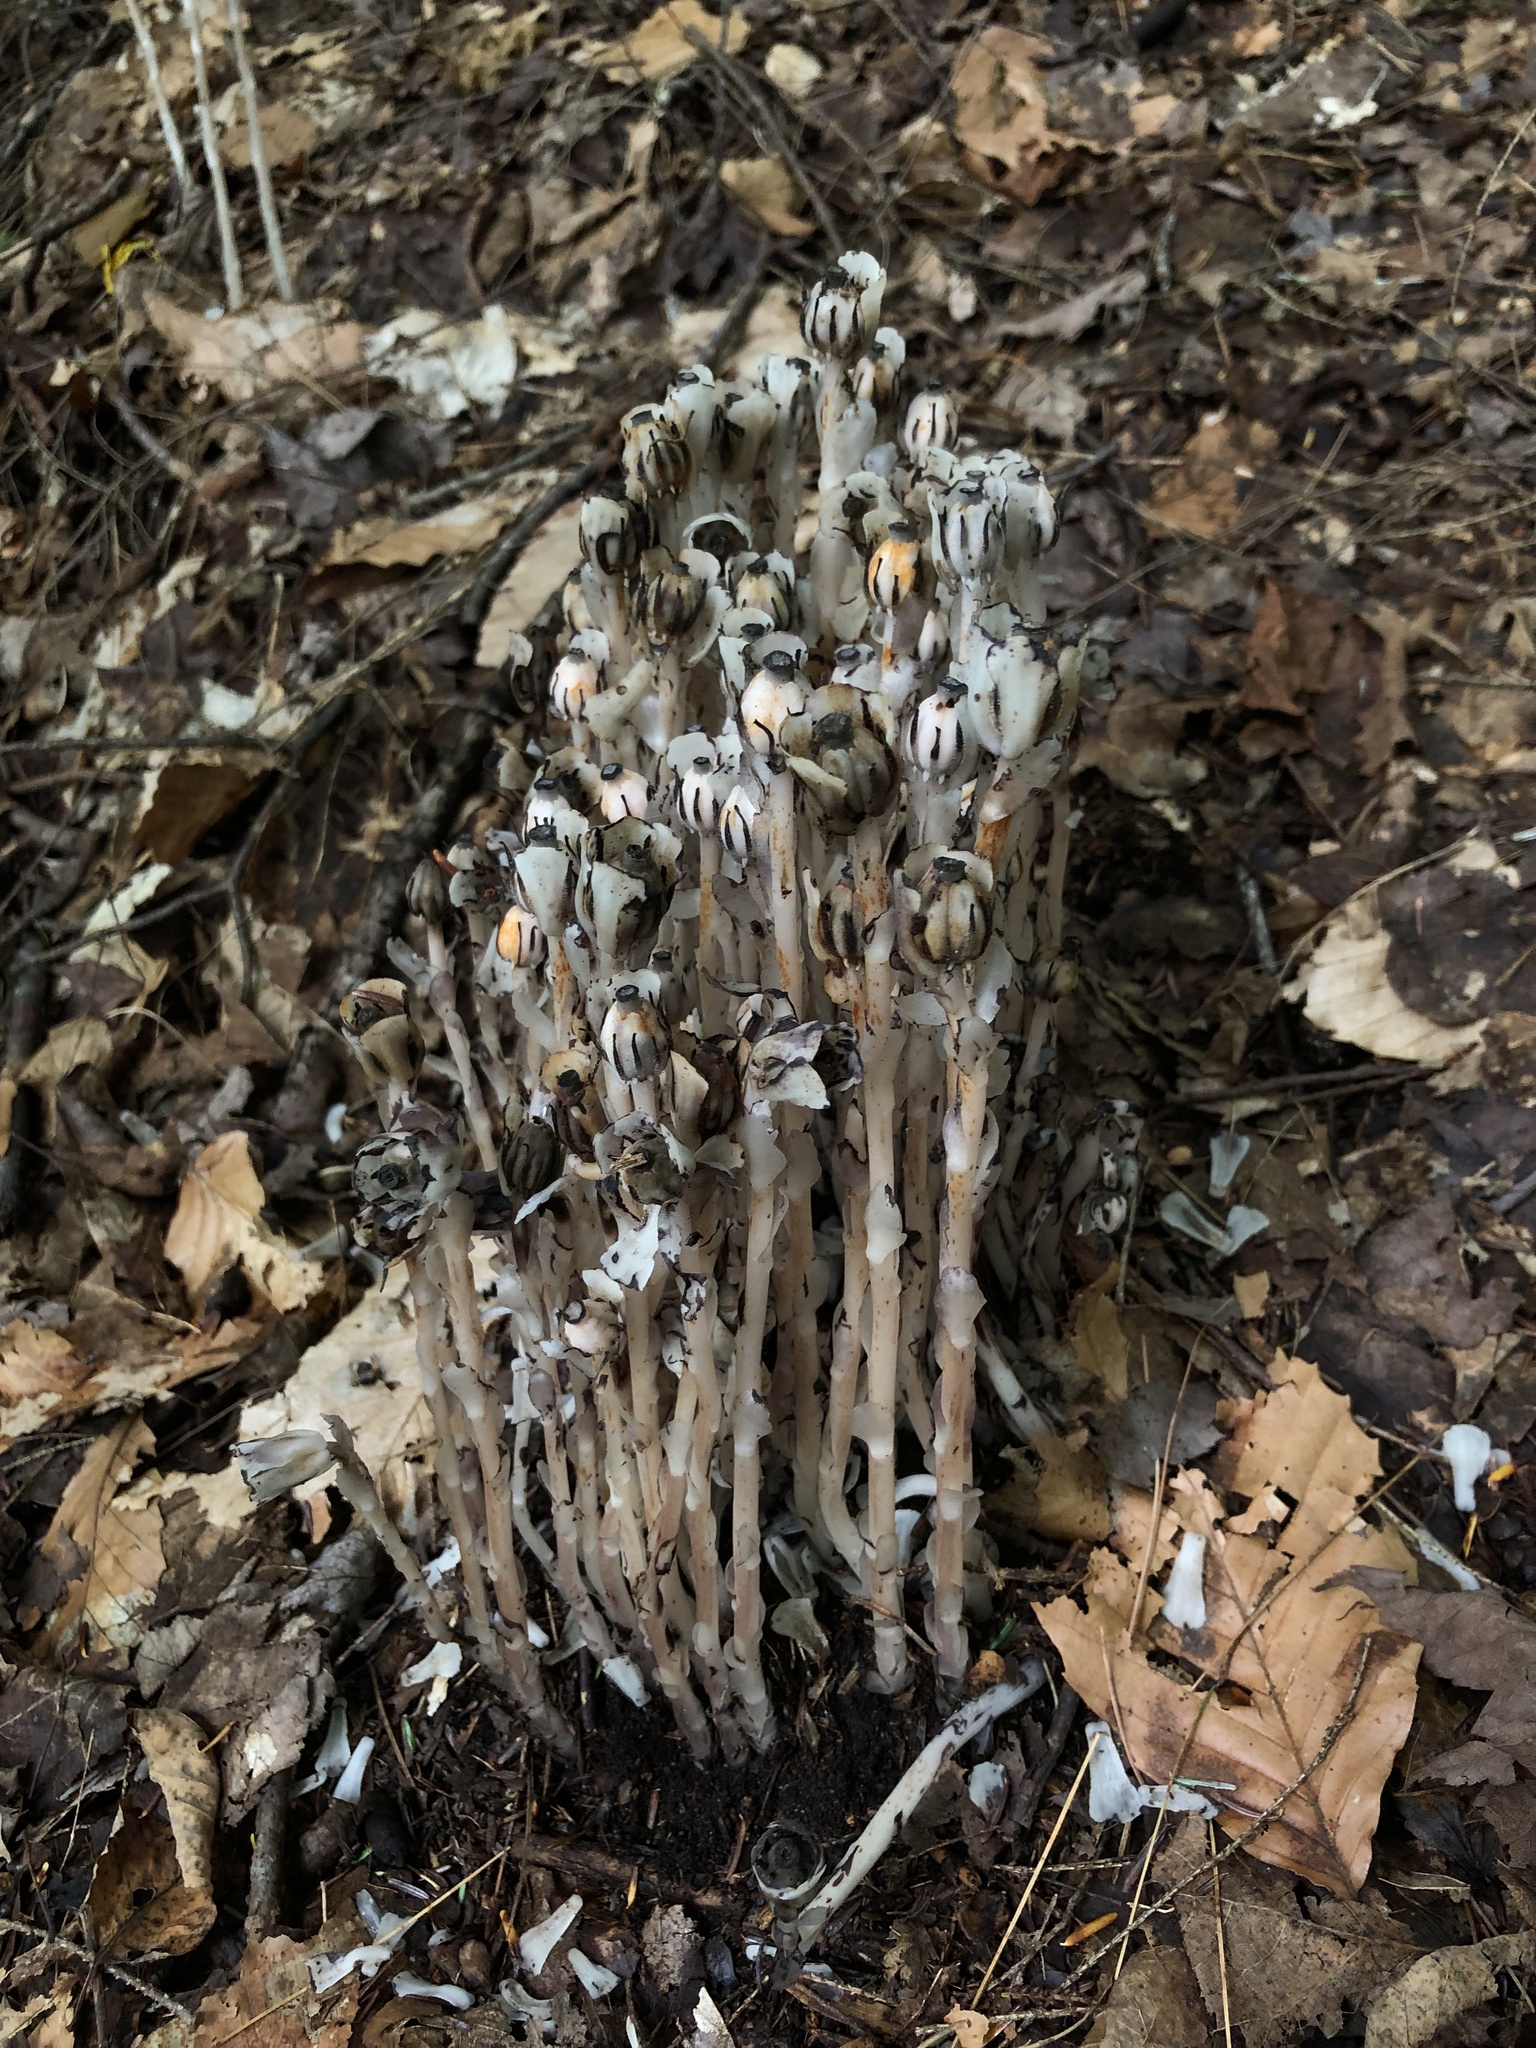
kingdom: Plantae
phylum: Tracheophyta
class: Magnoliopsida
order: Ericales
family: Ericaceae
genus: Monotropa
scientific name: Monotropa uniflora
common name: Convulsion root
